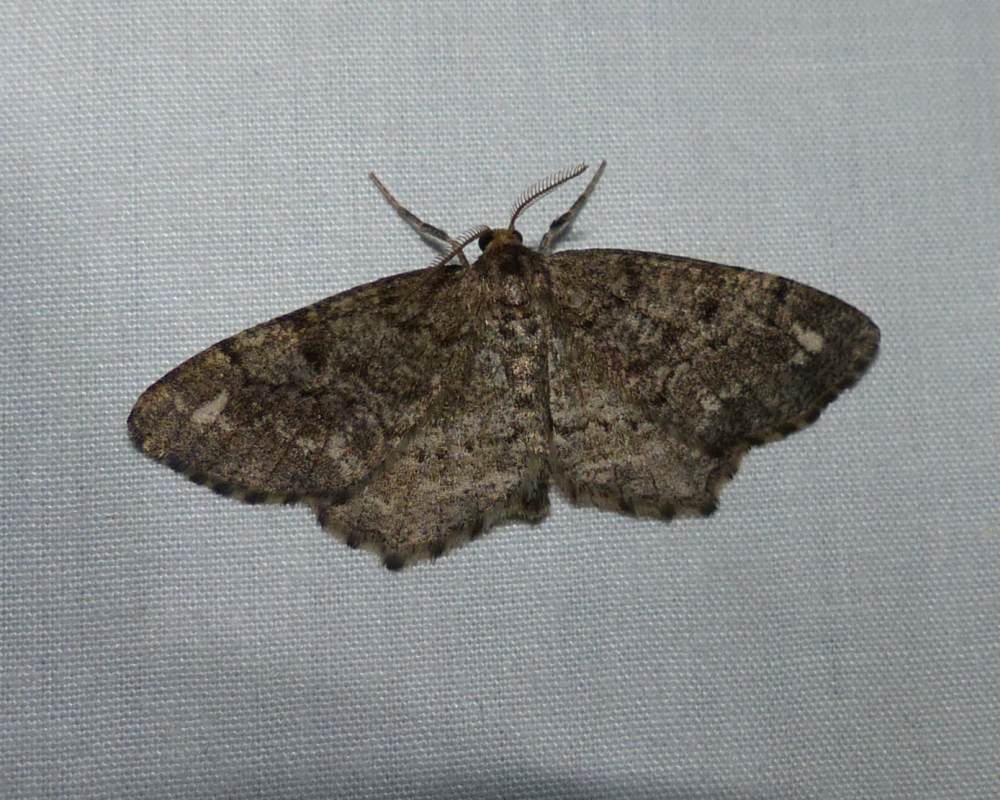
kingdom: Animalia
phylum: Arthropoda
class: Insecta
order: Lepidoptera
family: Geometridae
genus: Homochlodes
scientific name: Homochlodes fritillaria
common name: Pale homochlodes
